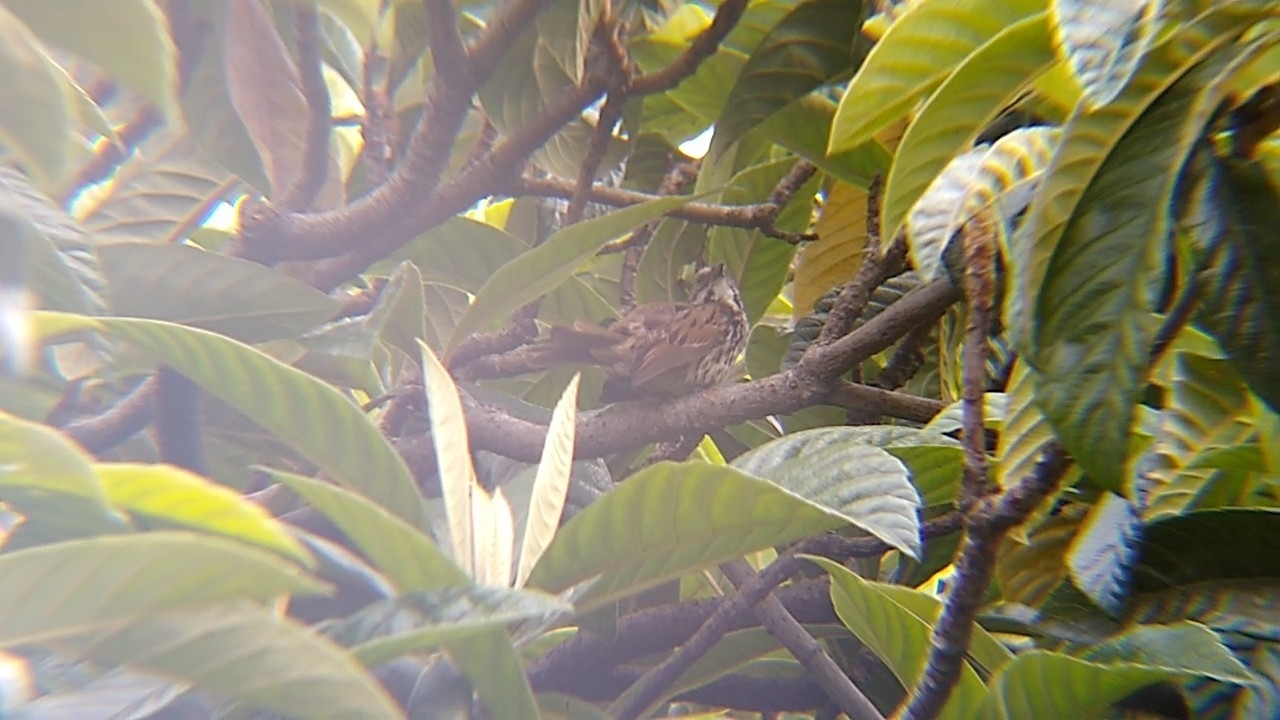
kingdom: Animalia
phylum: Chordata
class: Aves
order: Passeriformes
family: Passerellidae
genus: Melospiza
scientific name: Melospiza melodia
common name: Song sparrow
